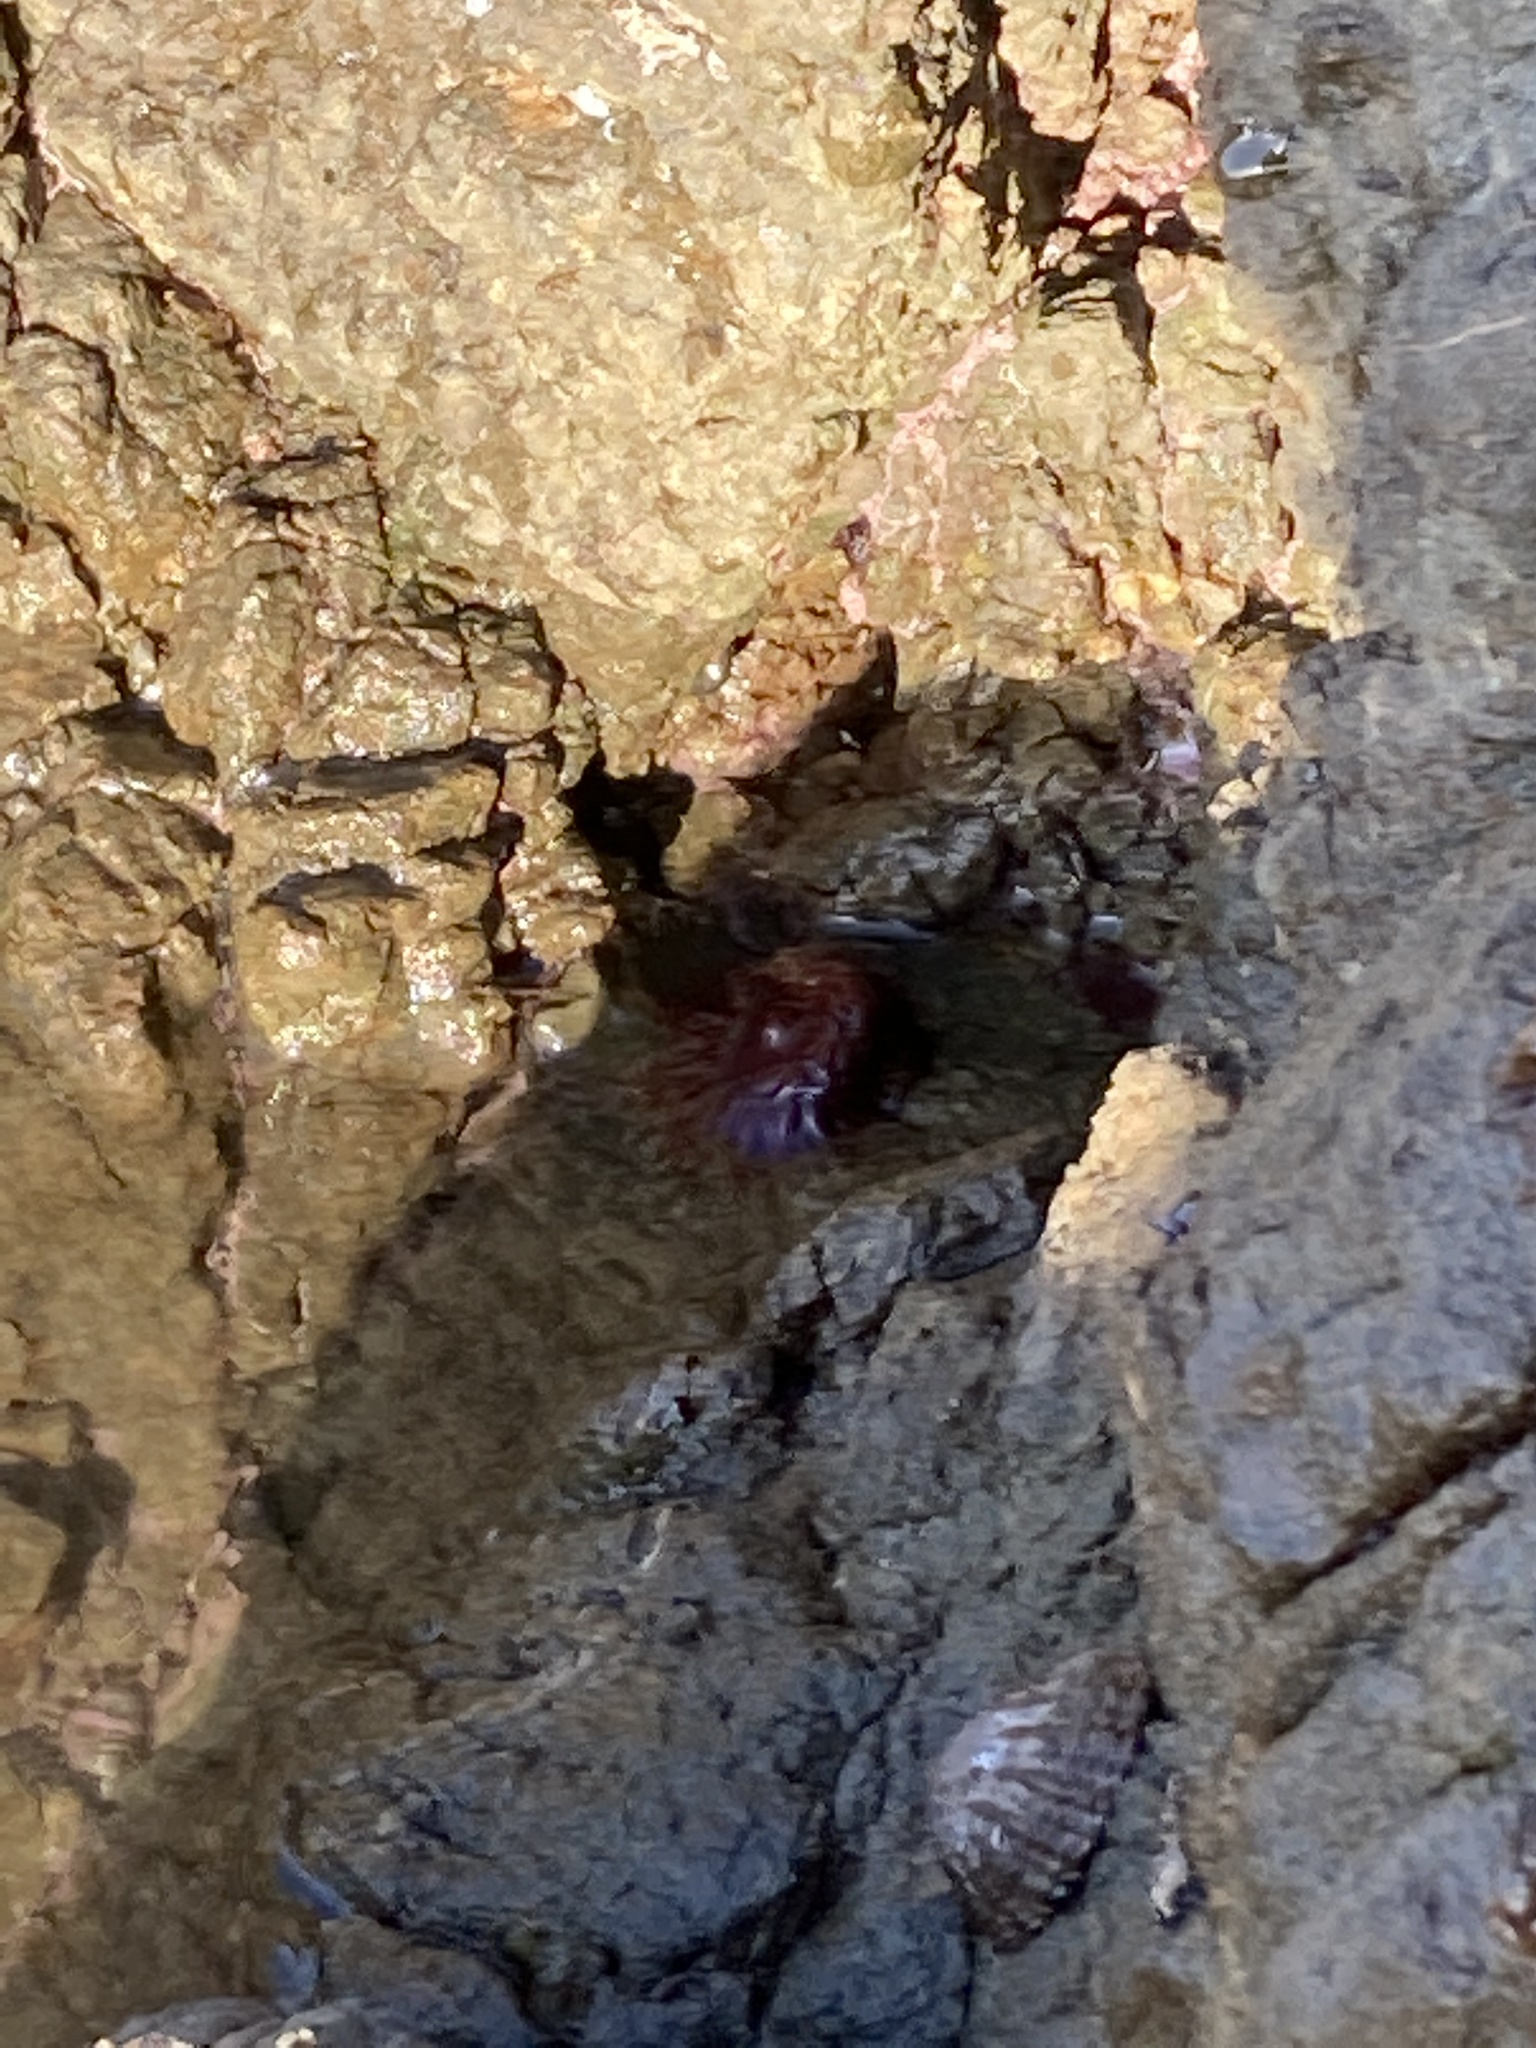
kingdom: Animalia
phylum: Cnidaria
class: Anthozoa
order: Actiniaria
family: Actiniidae
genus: Actinia
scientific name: Actinia tenebrosa
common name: Waratah anemone
